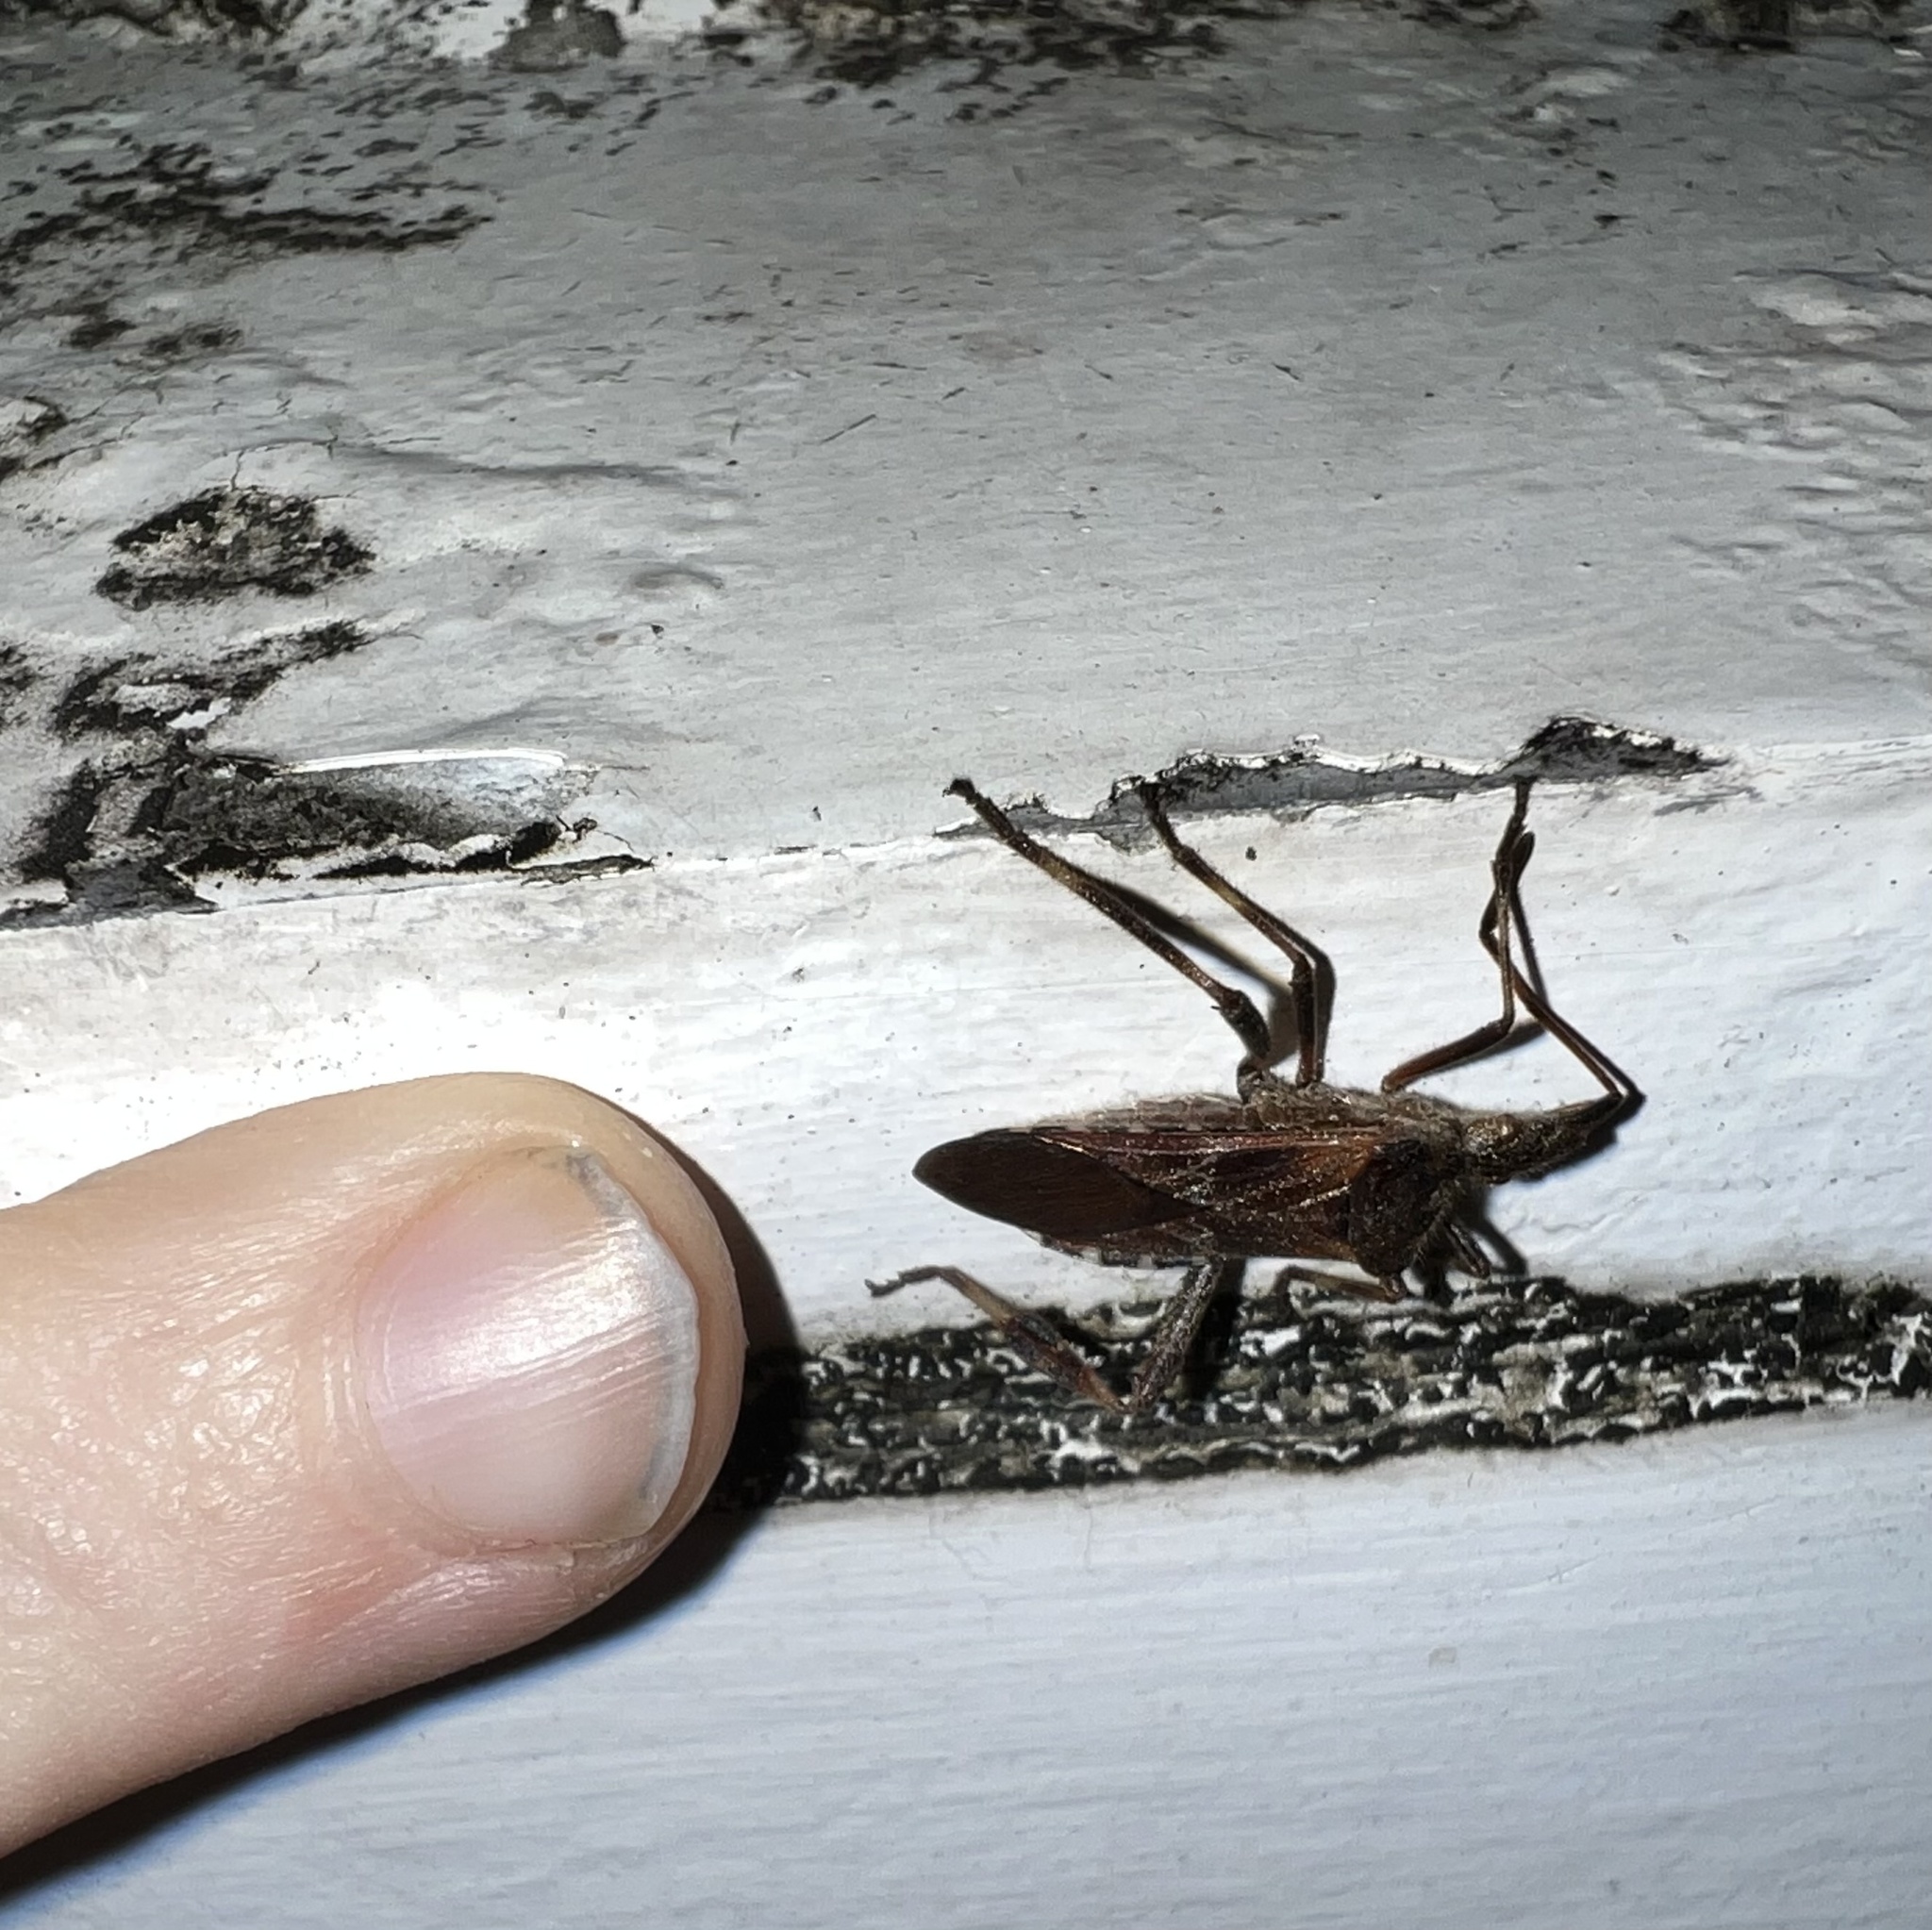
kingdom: Animalia
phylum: Arthropoda
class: Insecta
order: Hemiptera
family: Coreidae
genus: Leptoglossus
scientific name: Leptoglossus occidentalis
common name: Western conifer-seed bug
